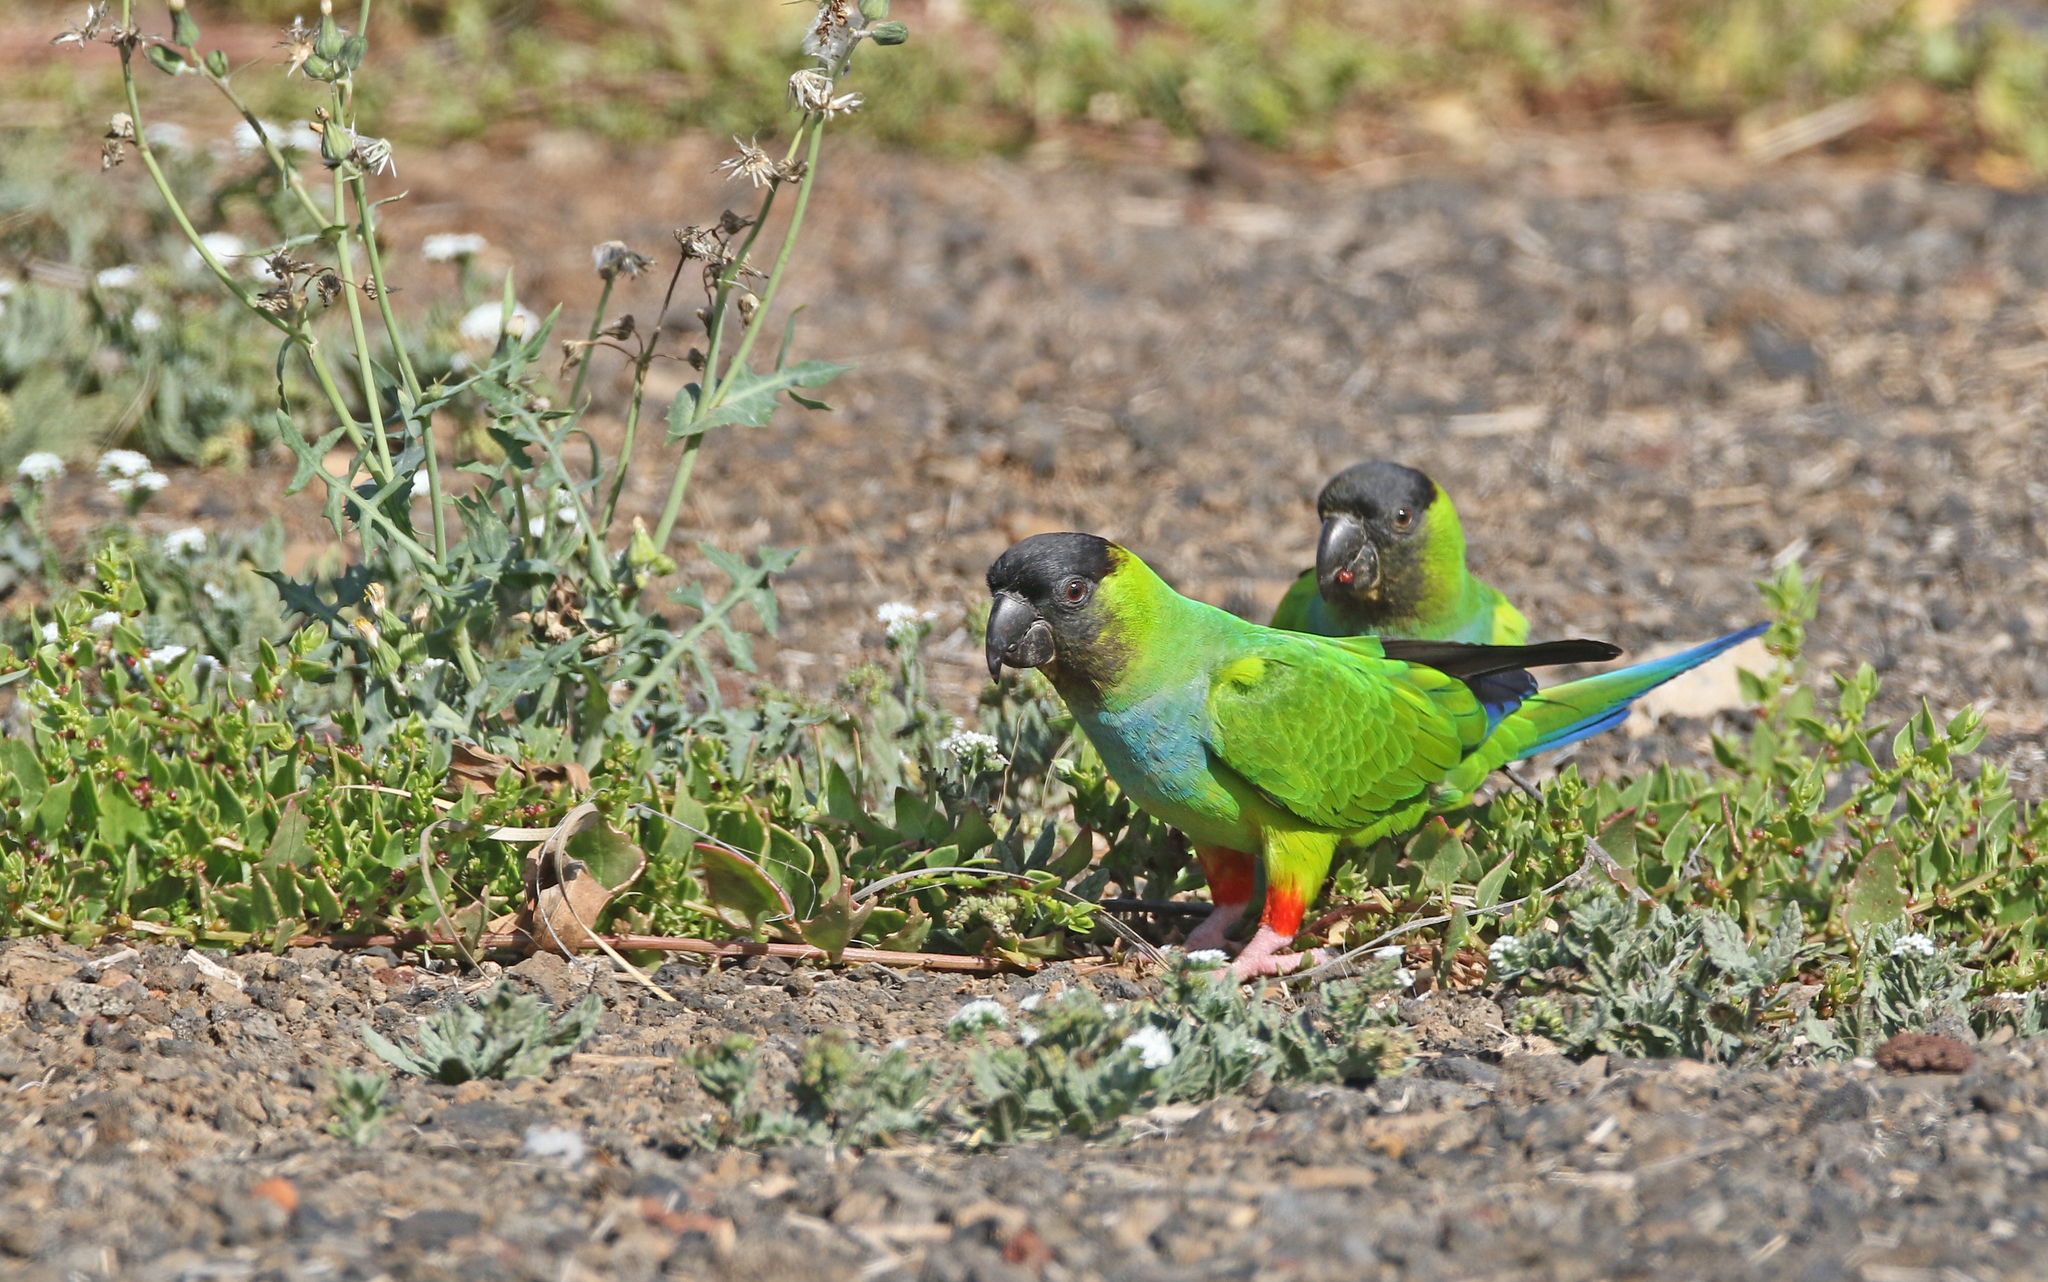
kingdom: Animalia
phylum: Chordata
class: Aves
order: Psittaciformes
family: Psittacidae
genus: Nandayus
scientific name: Nandayus nenday
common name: Nanday parakeet
